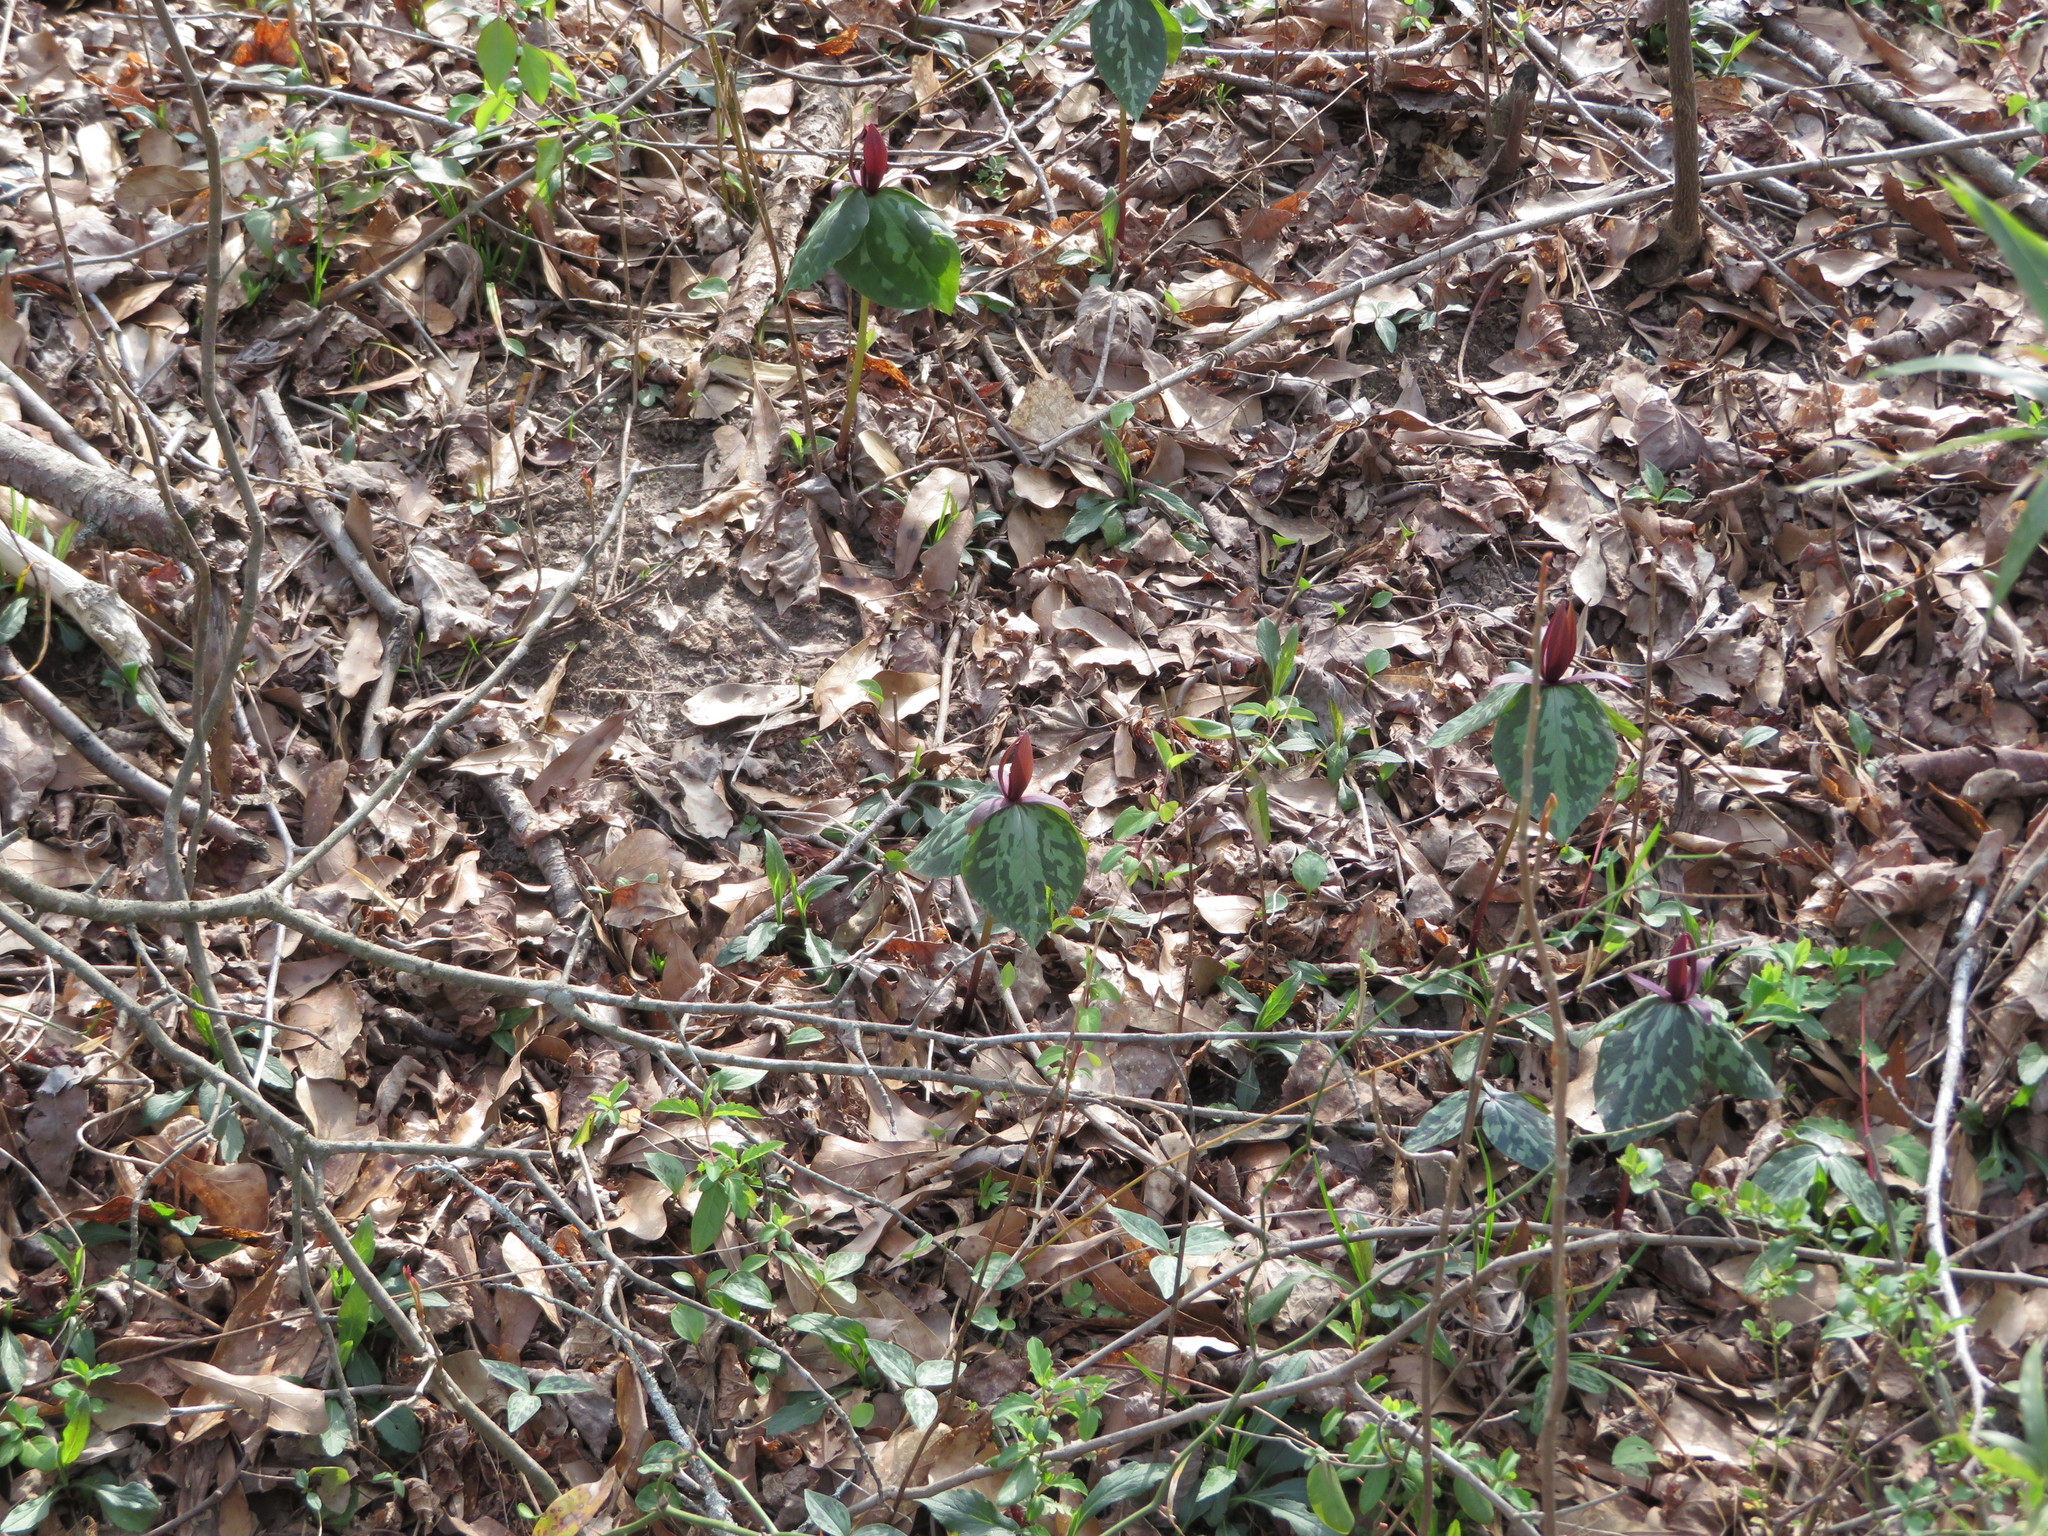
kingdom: Plantae
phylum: Tracheophyta
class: Liliopsida
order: Liliales
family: Melanthiaceae
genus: Trillium
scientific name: Trillium cuneatum
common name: Cuneate trillium
